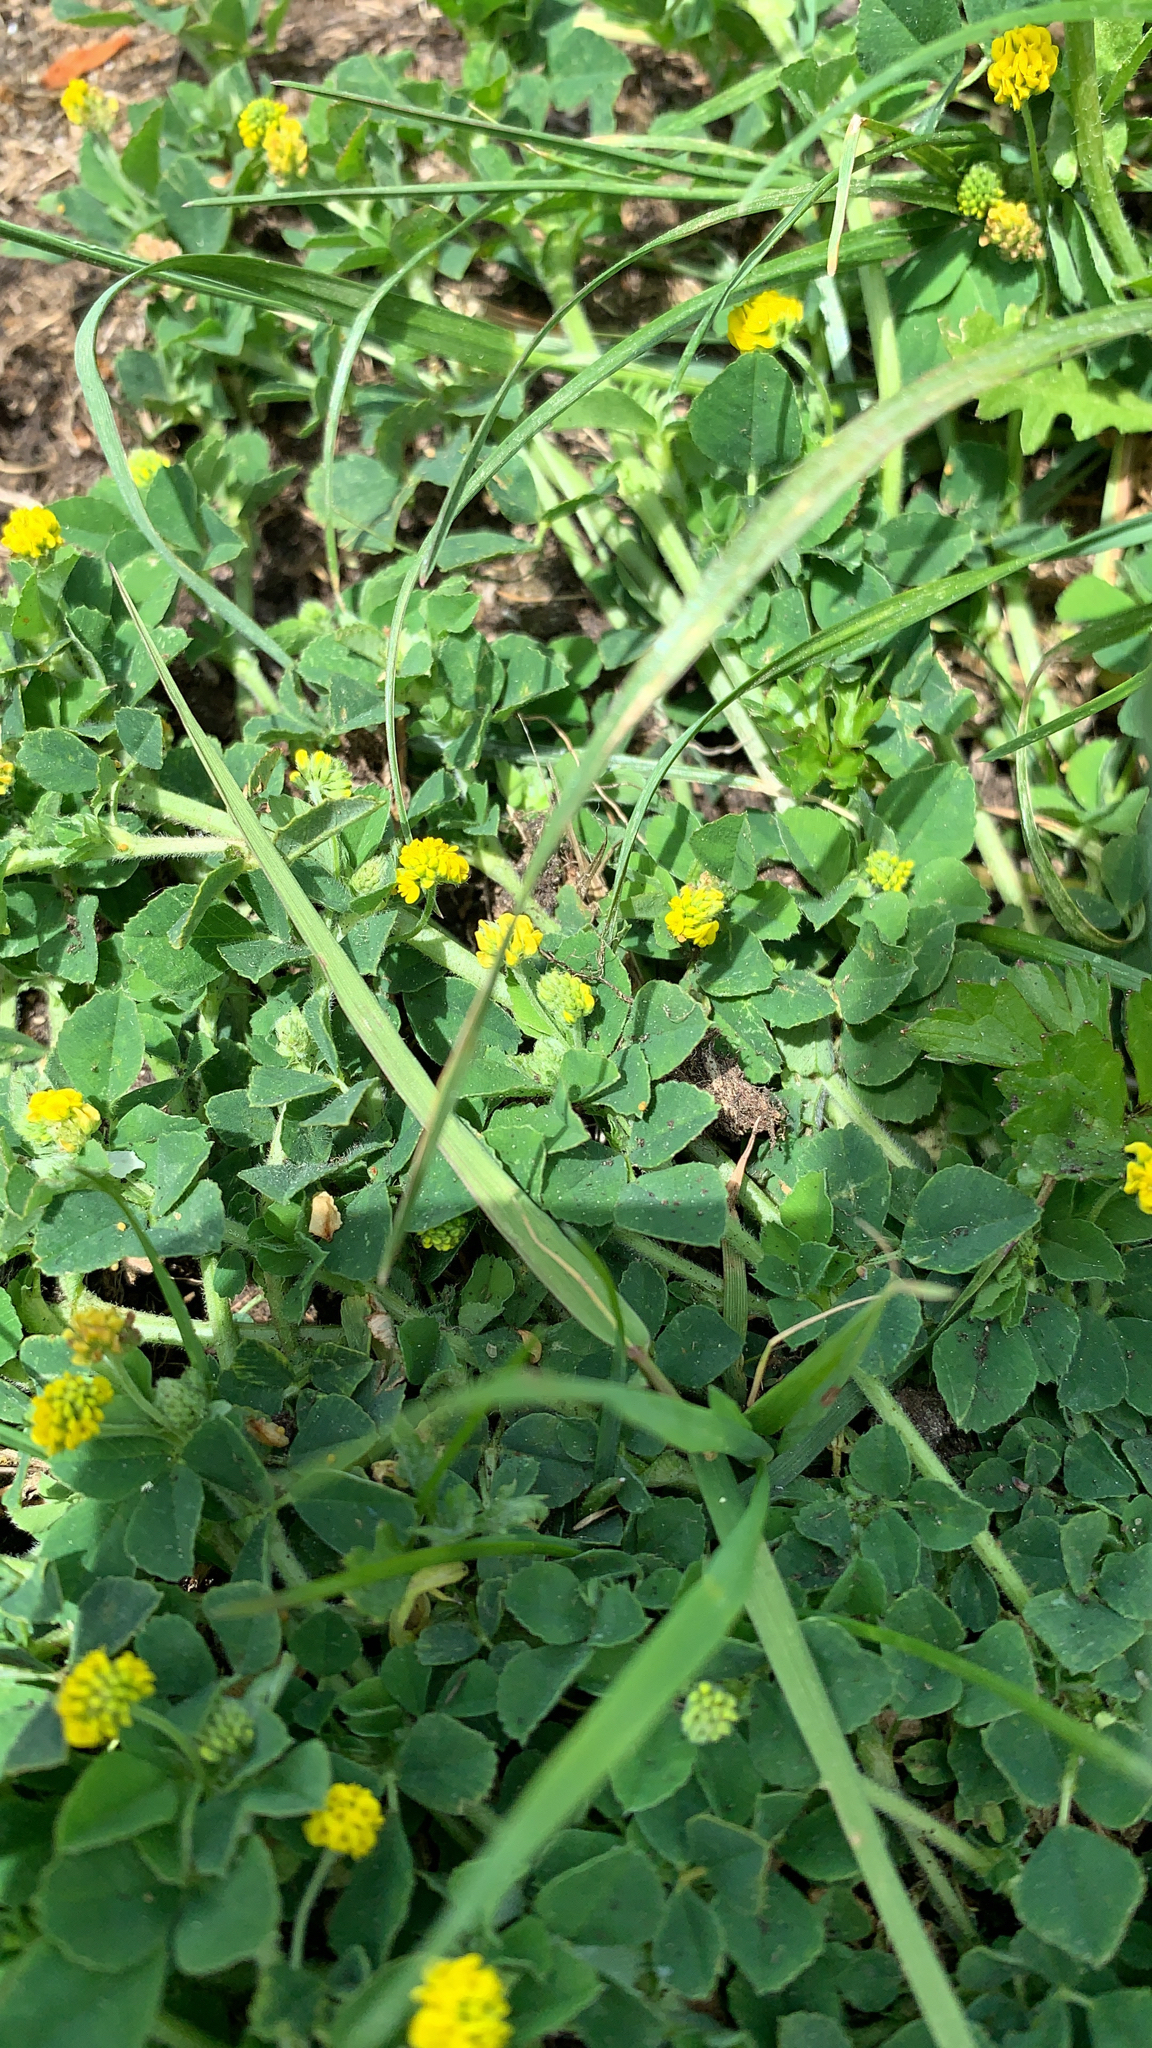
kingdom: Plantae
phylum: Tracheophyta
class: Magnoliopsida
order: Fabales
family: Fabaceae
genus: Medicago
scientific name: Medicago lupulina
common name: Black medick
